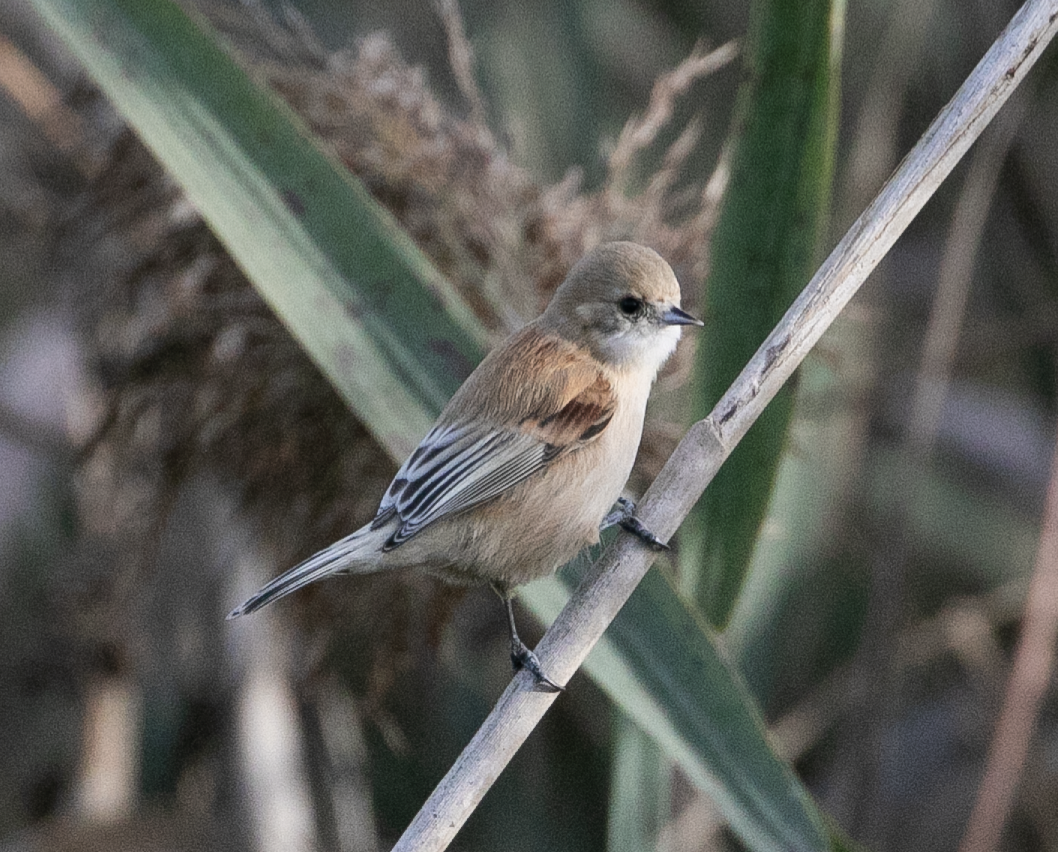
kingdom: Animalia
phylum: Chordata
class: Aves
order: Passeriformes
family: Remizidae
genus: Remiz
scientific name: Remiz pendulinus
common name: Eurasian penduline tit
